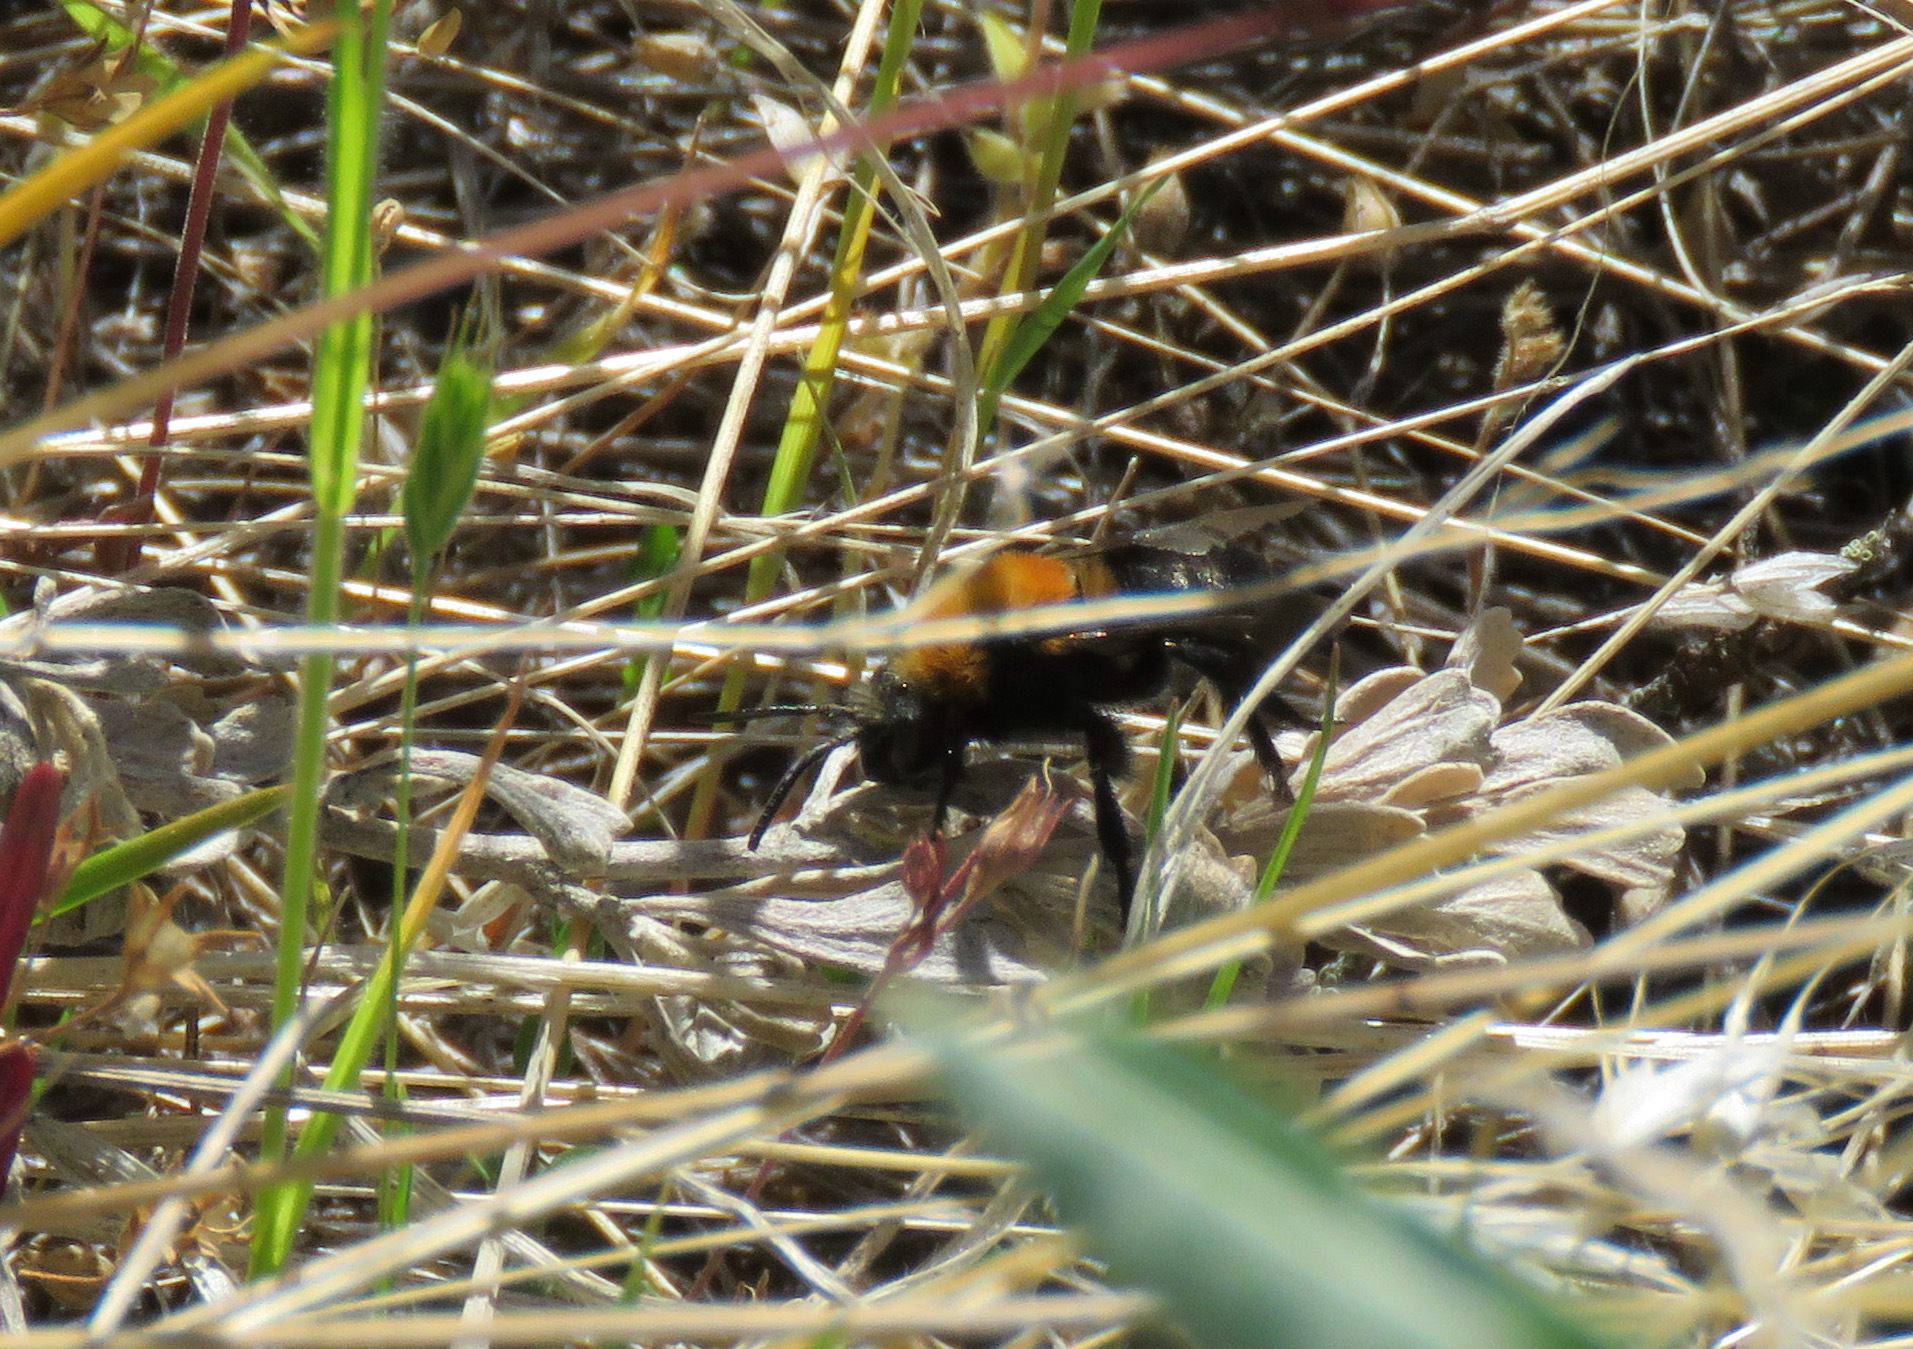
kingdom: Animalia
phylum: Arthropoda
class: Insecta
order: Hymenoptera
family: Apidae
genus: Melecta
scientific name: Melecta
